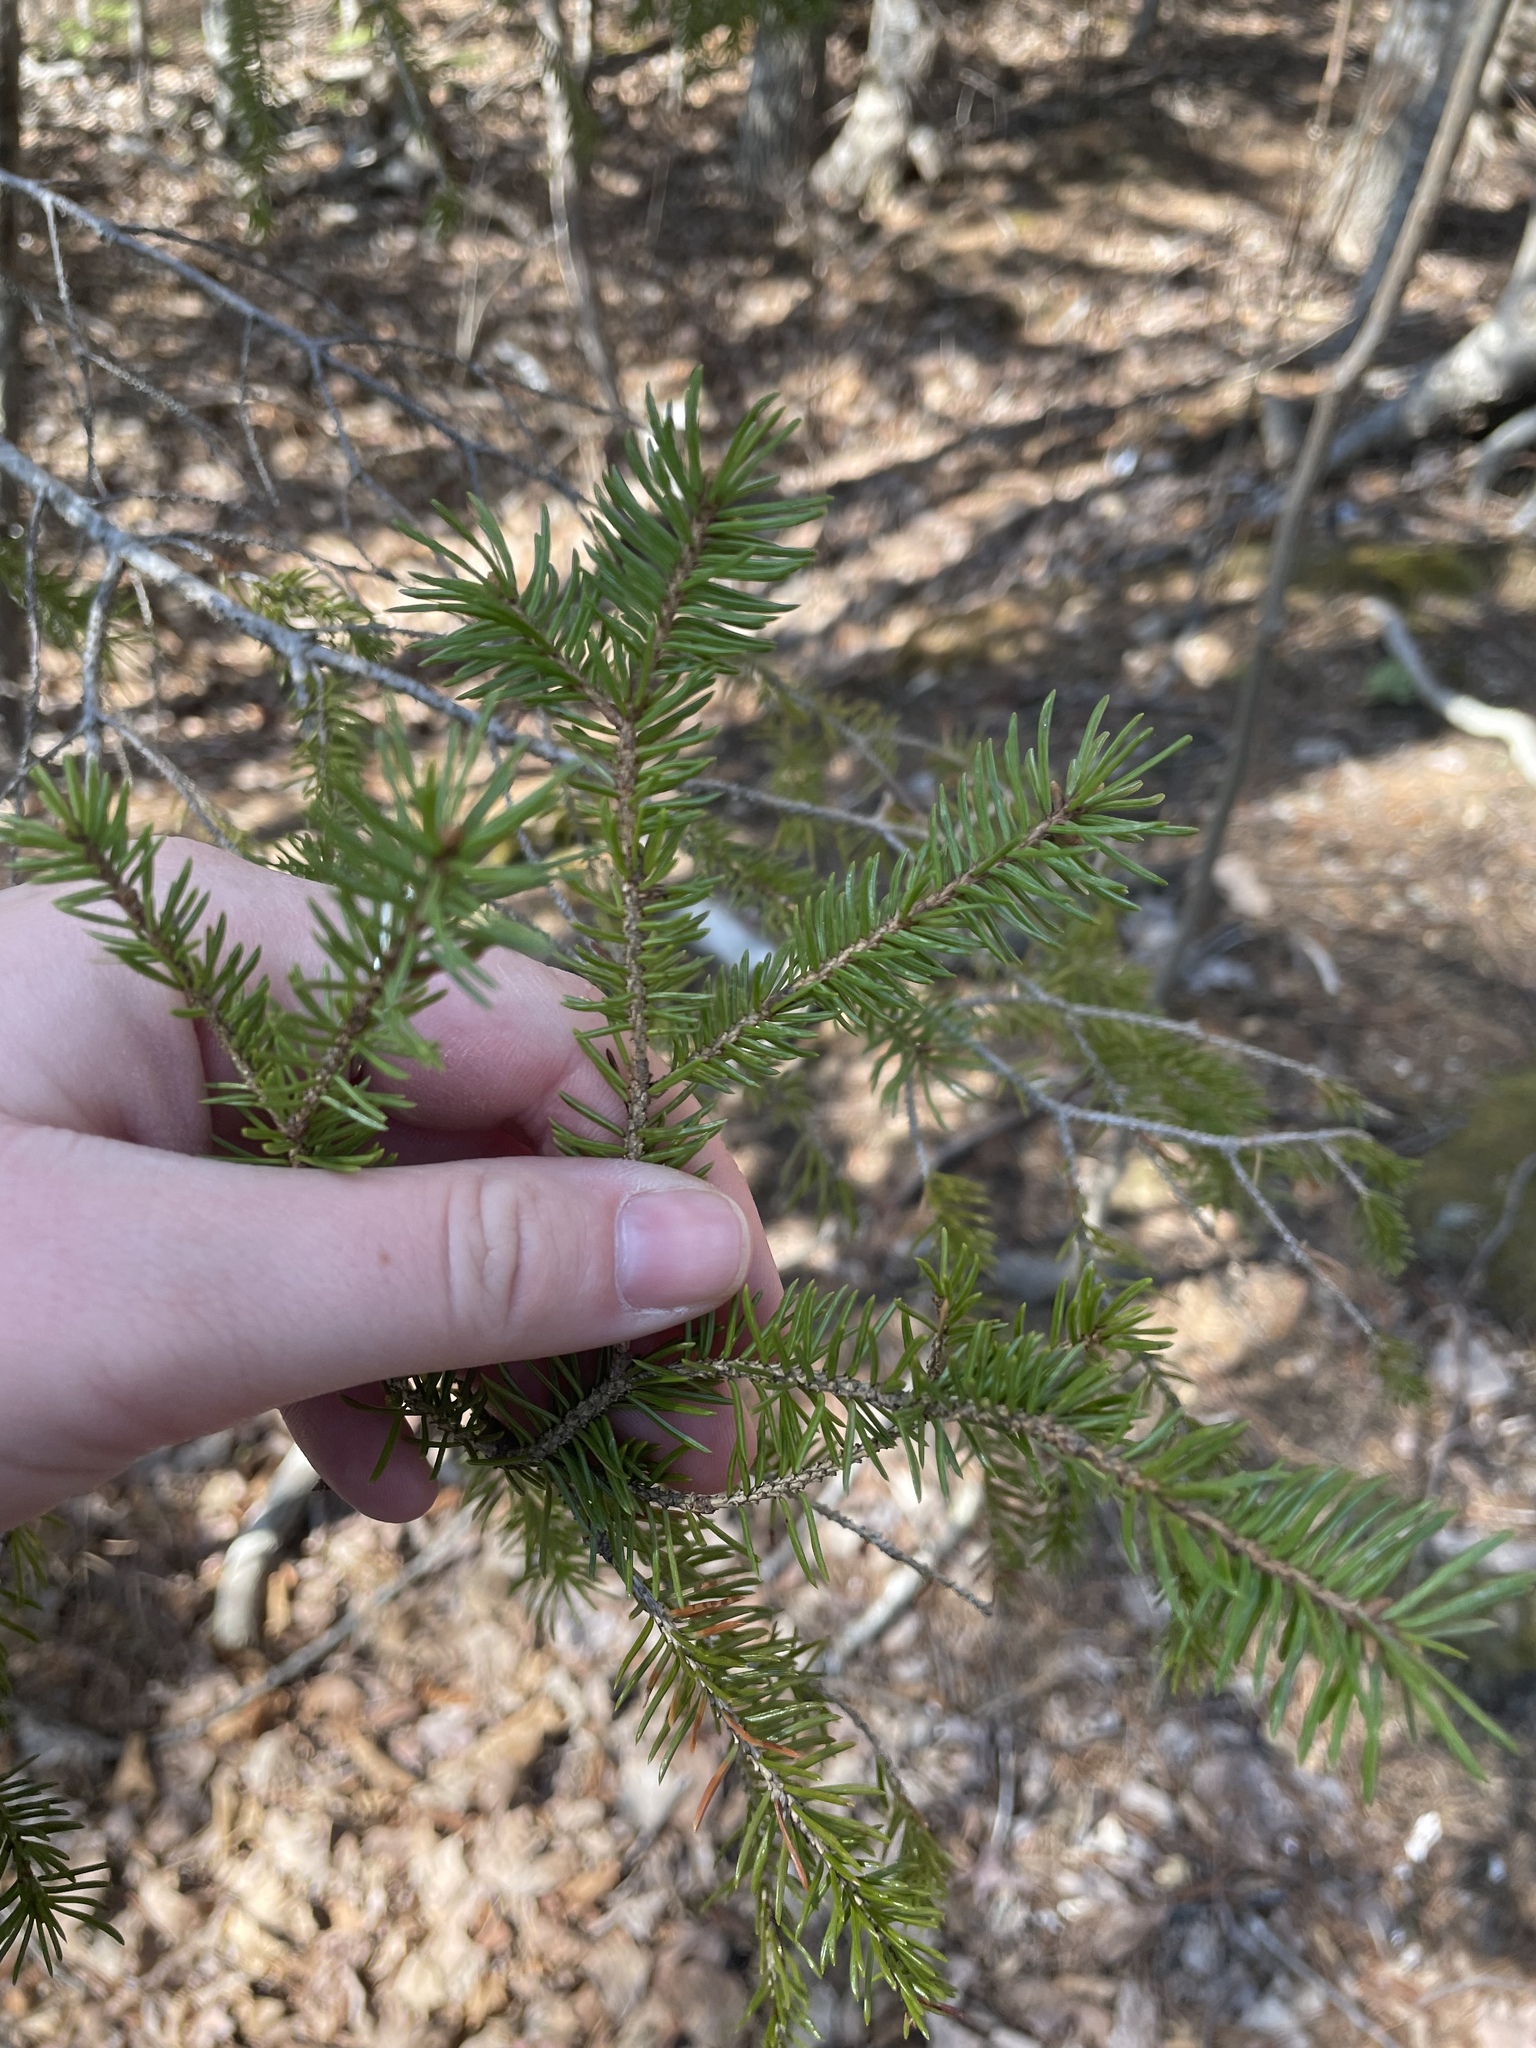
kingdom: Plantae
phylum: Tracheophyta
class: Pinopsida
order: Pinales
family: Pinaceae
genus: Picea
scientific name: Picea glauca
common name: White spruce
